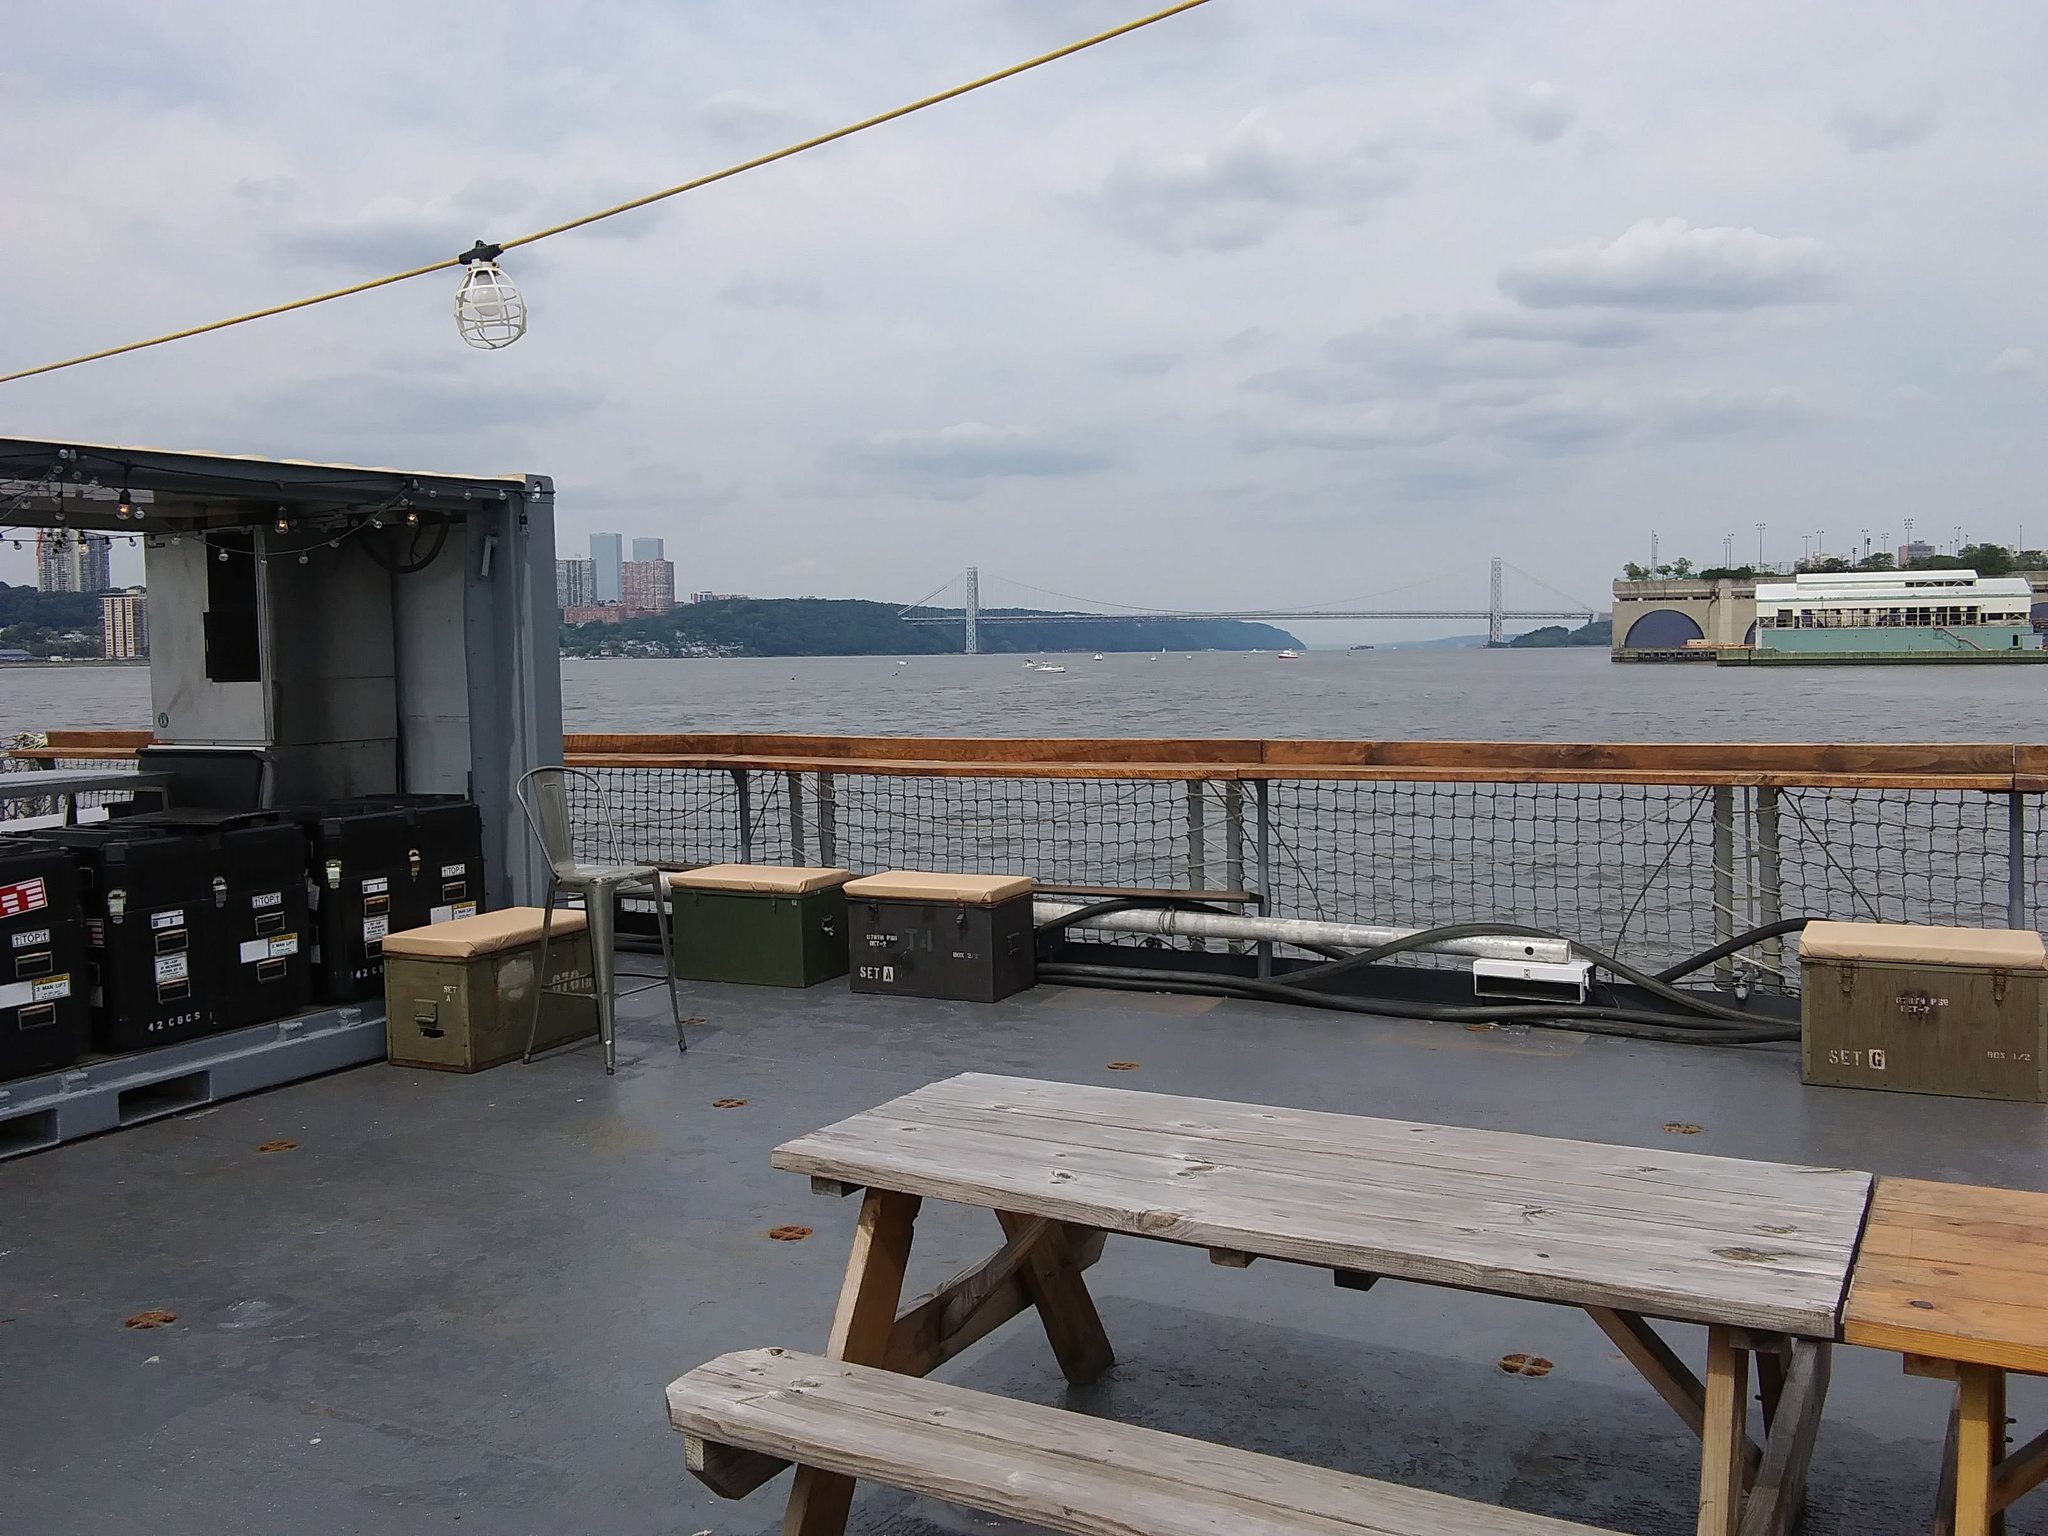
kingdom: Animalia
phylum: Arthropoda
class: Insecta
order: Hymenoptera
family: Apidae
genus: Apis
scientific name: Apis mellifera
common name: Honey bee
